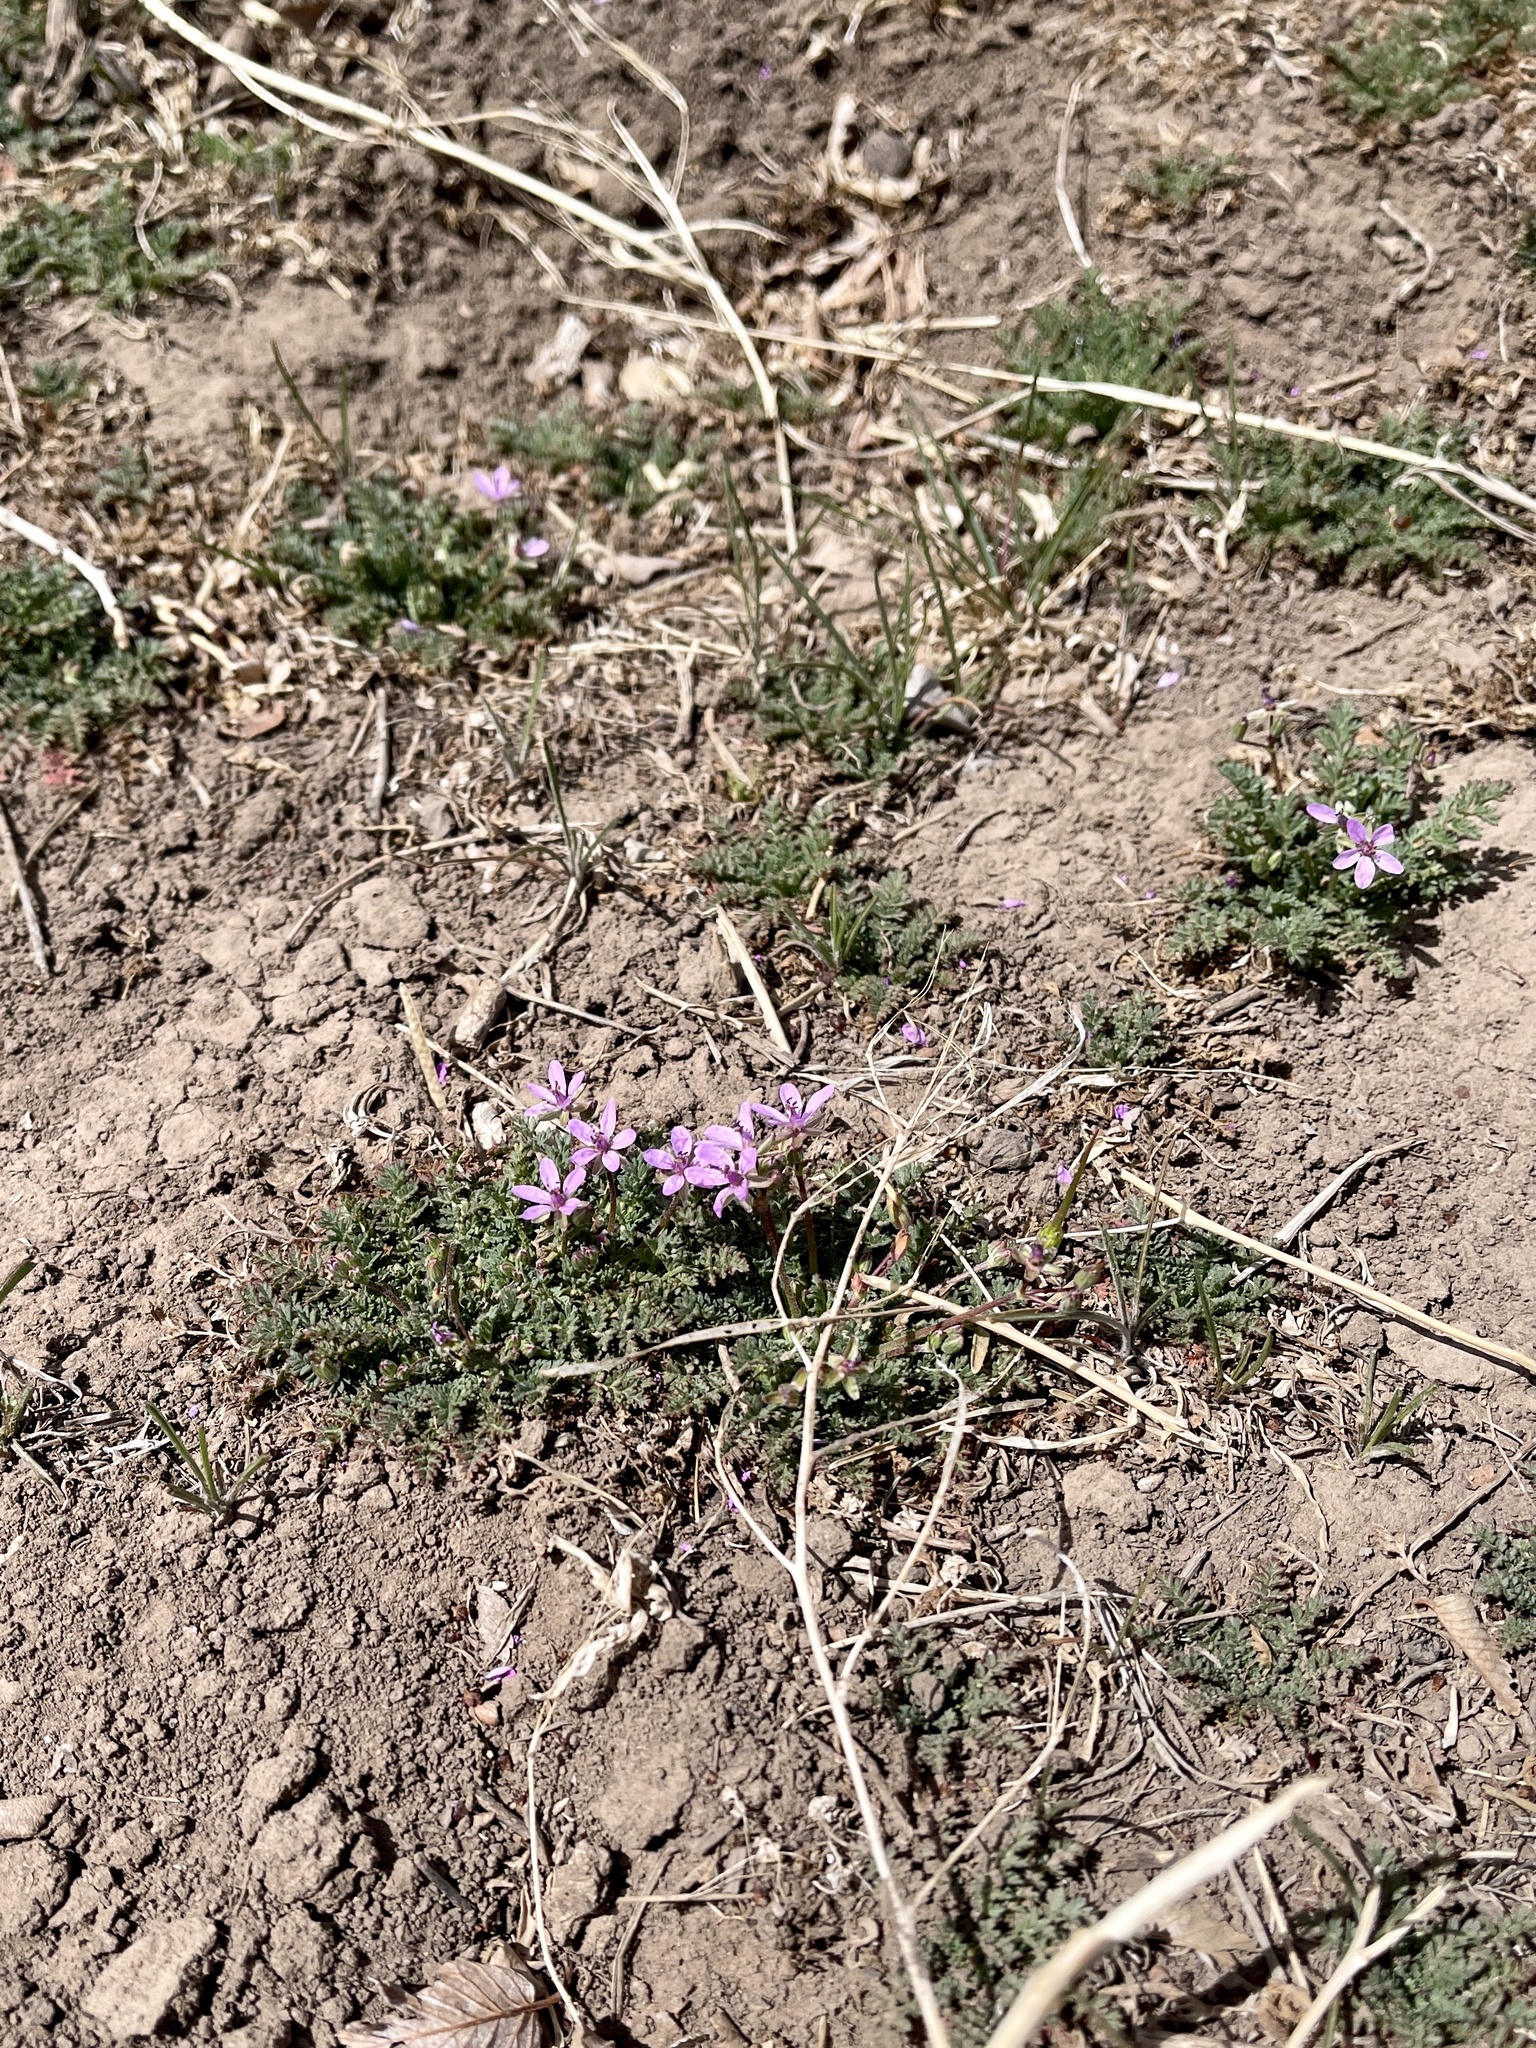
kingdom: Plantae
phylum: Tracheophyta
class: Magnoliopsida
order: Geraniales
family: Geraniaceae
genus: Erodium
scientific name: Erodium cicutarium
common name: Common stork's-bill
